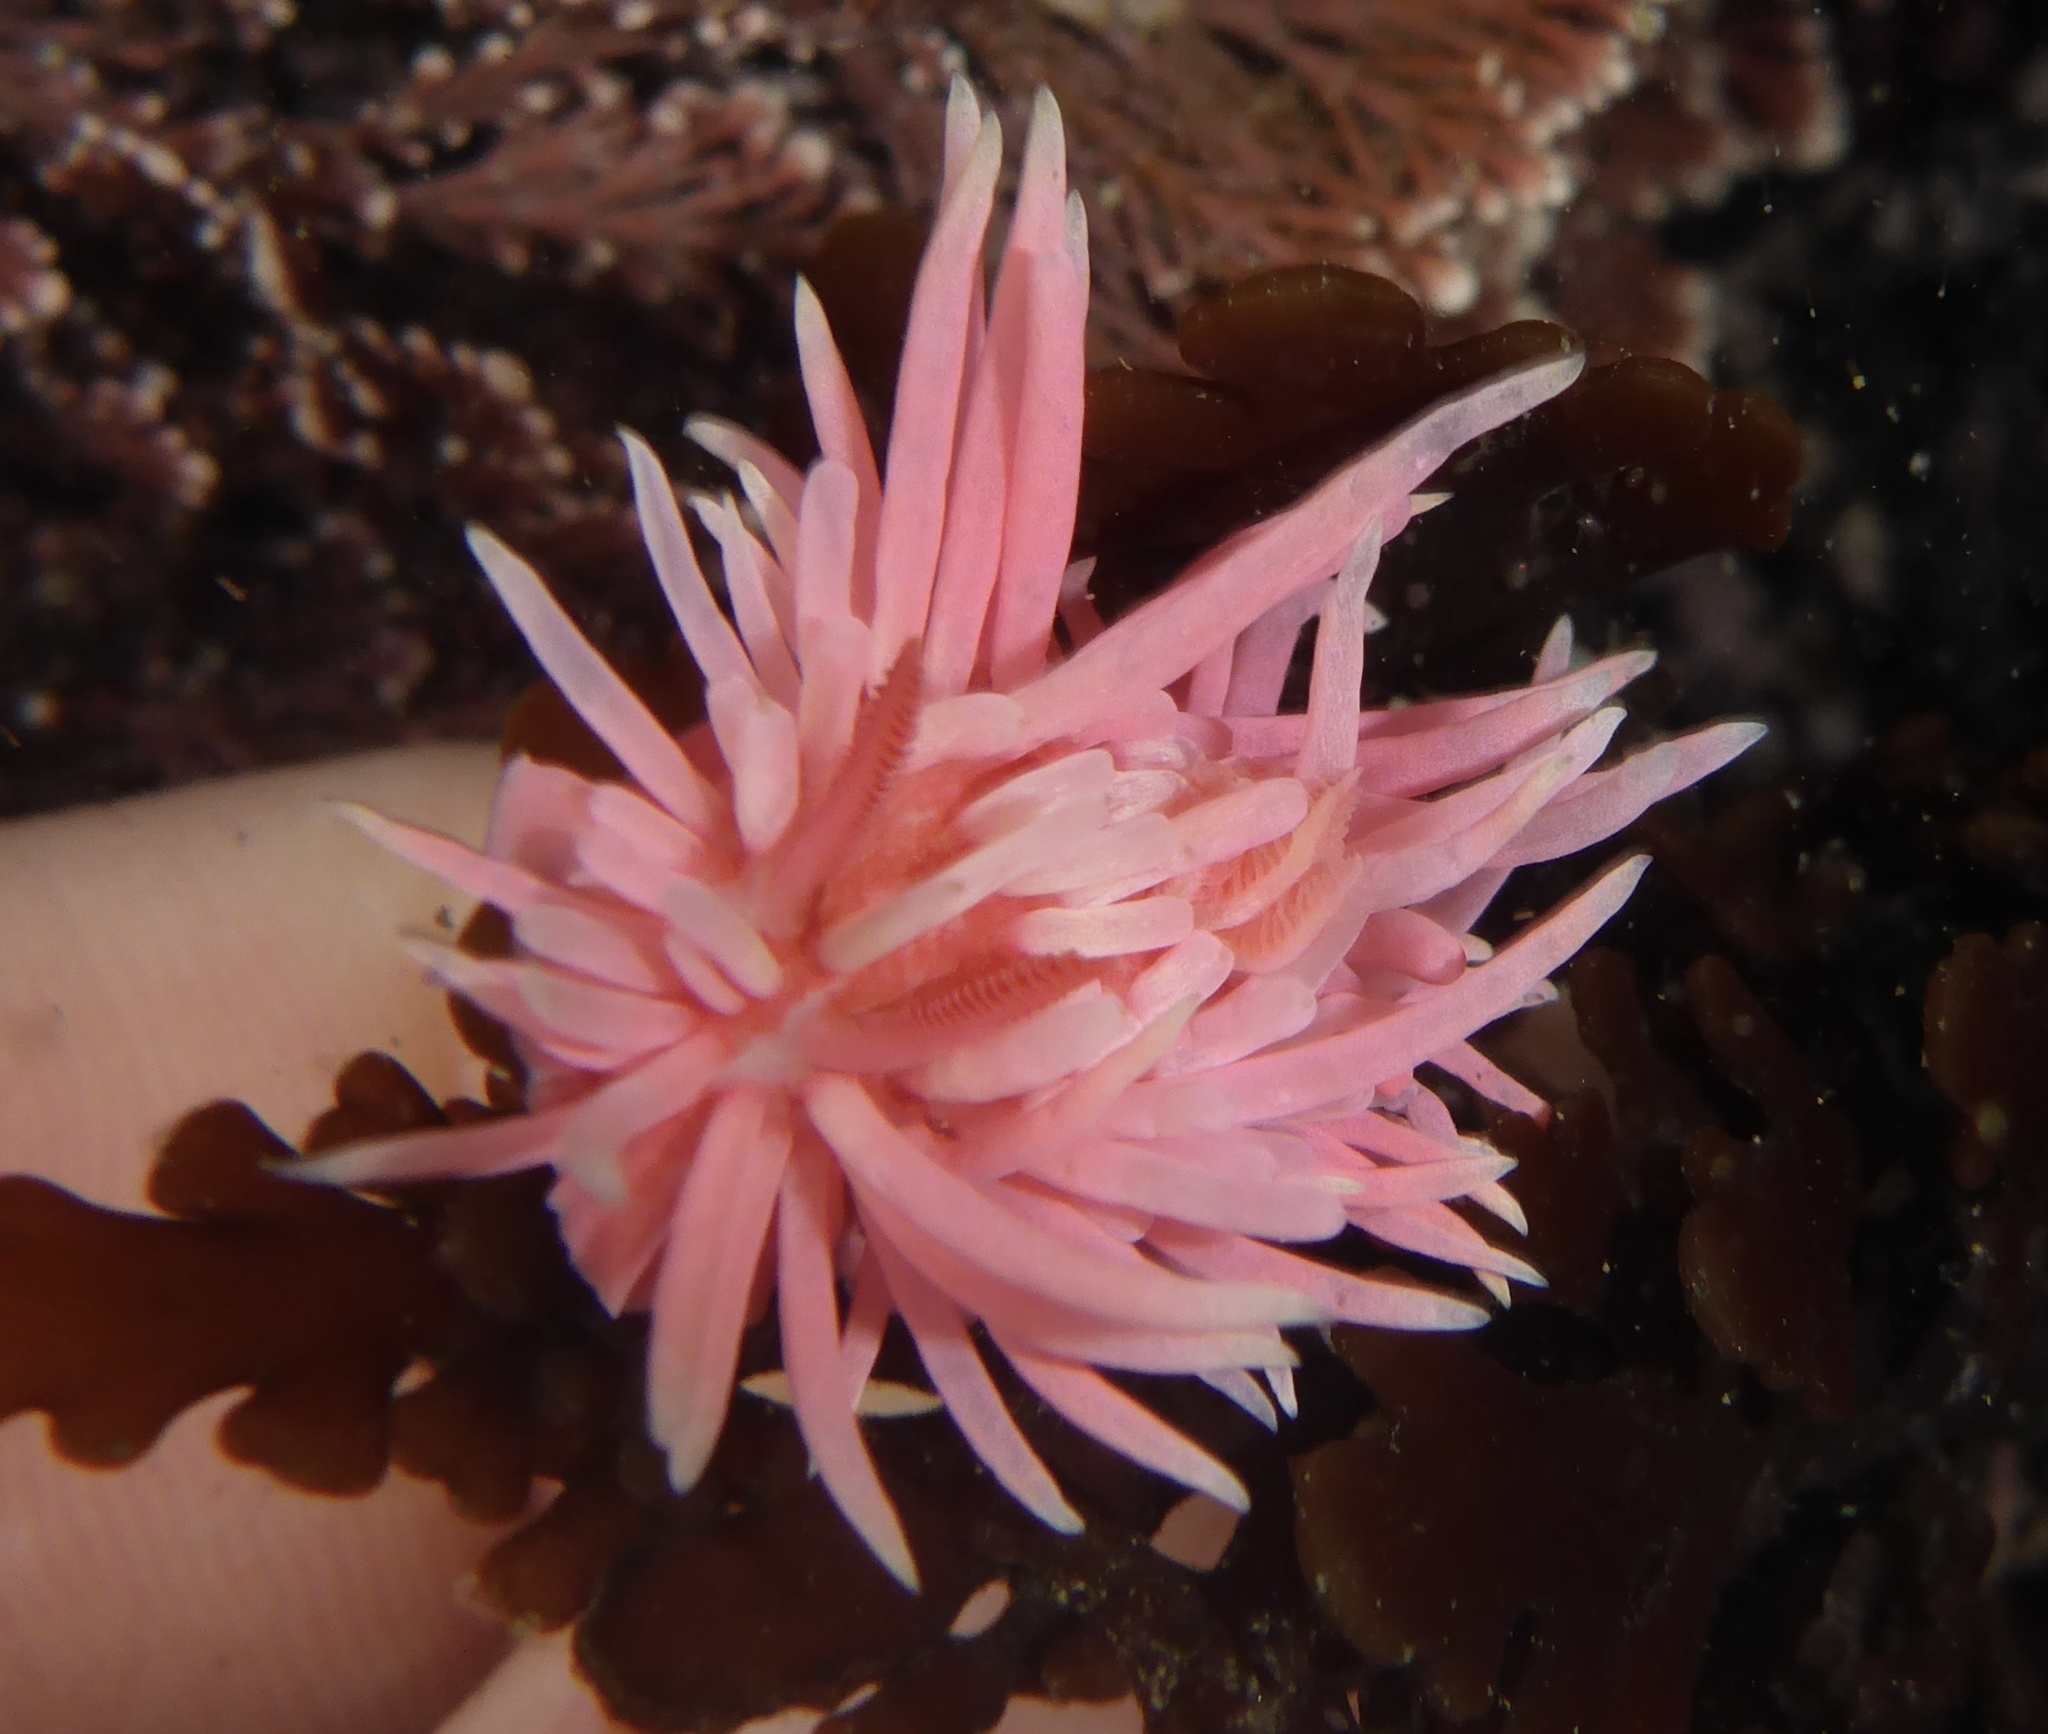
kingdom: Animalia
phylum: Mollusca
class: Gastropoda
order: Nudibranchia
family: Goniodorididae
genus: Okenia
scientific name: Okenia
